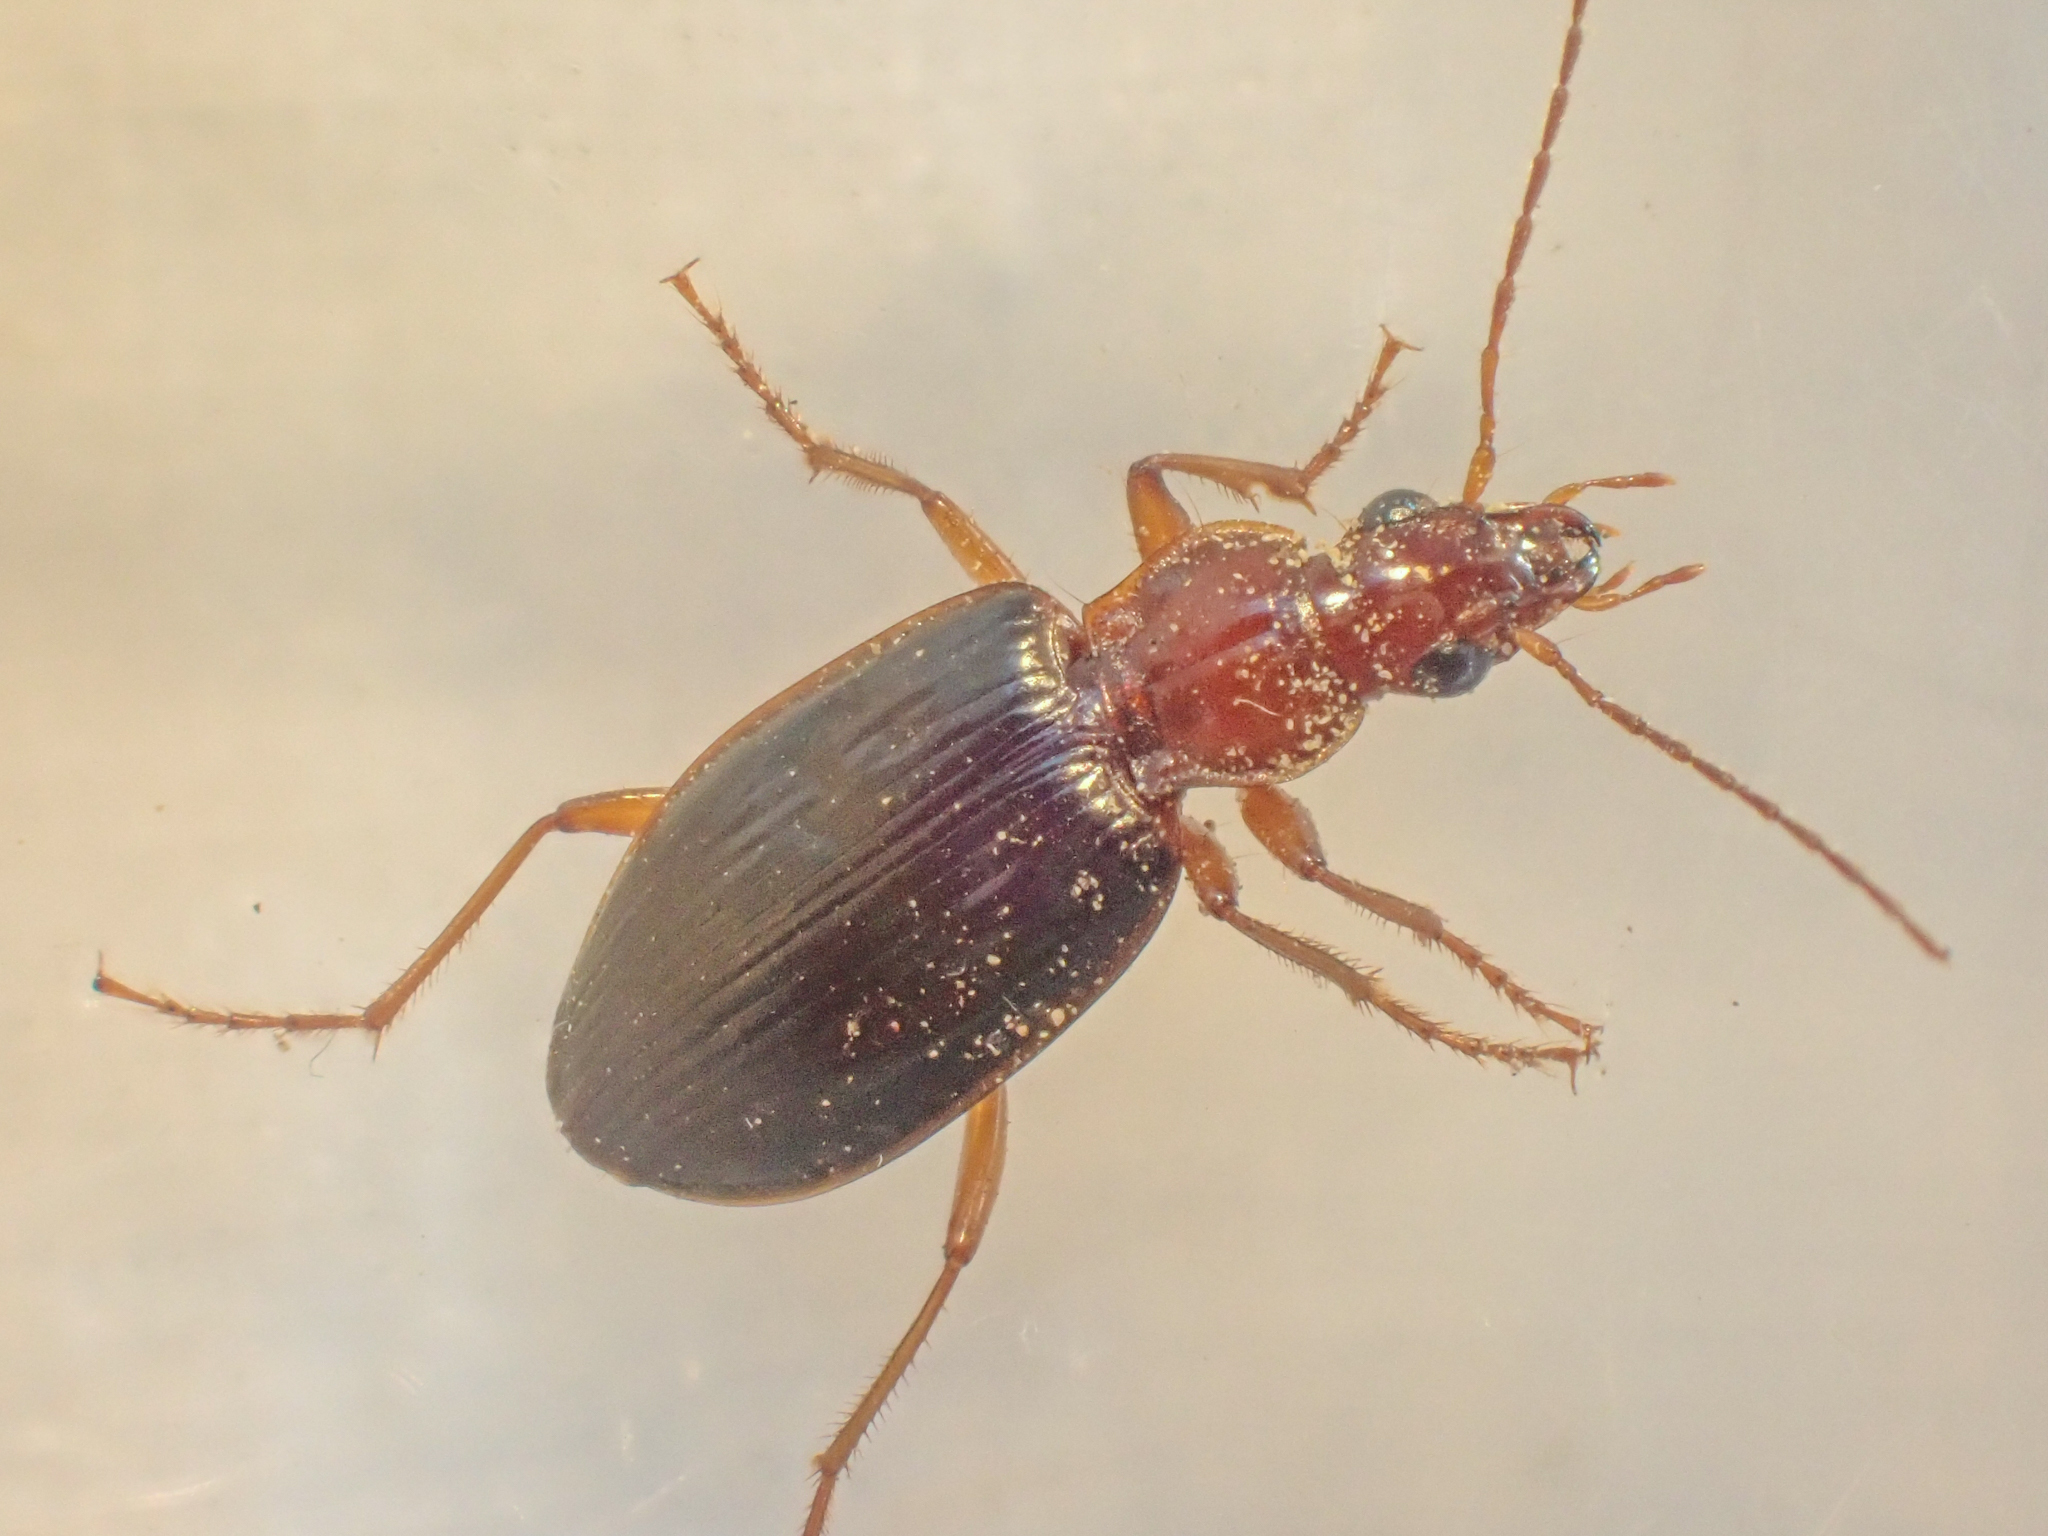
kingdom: Animalia
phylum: Arthropoda
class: Insecta
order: Coleoptera
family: Carabidae
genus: Platynus
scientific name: Platynus brunneomarginatus
